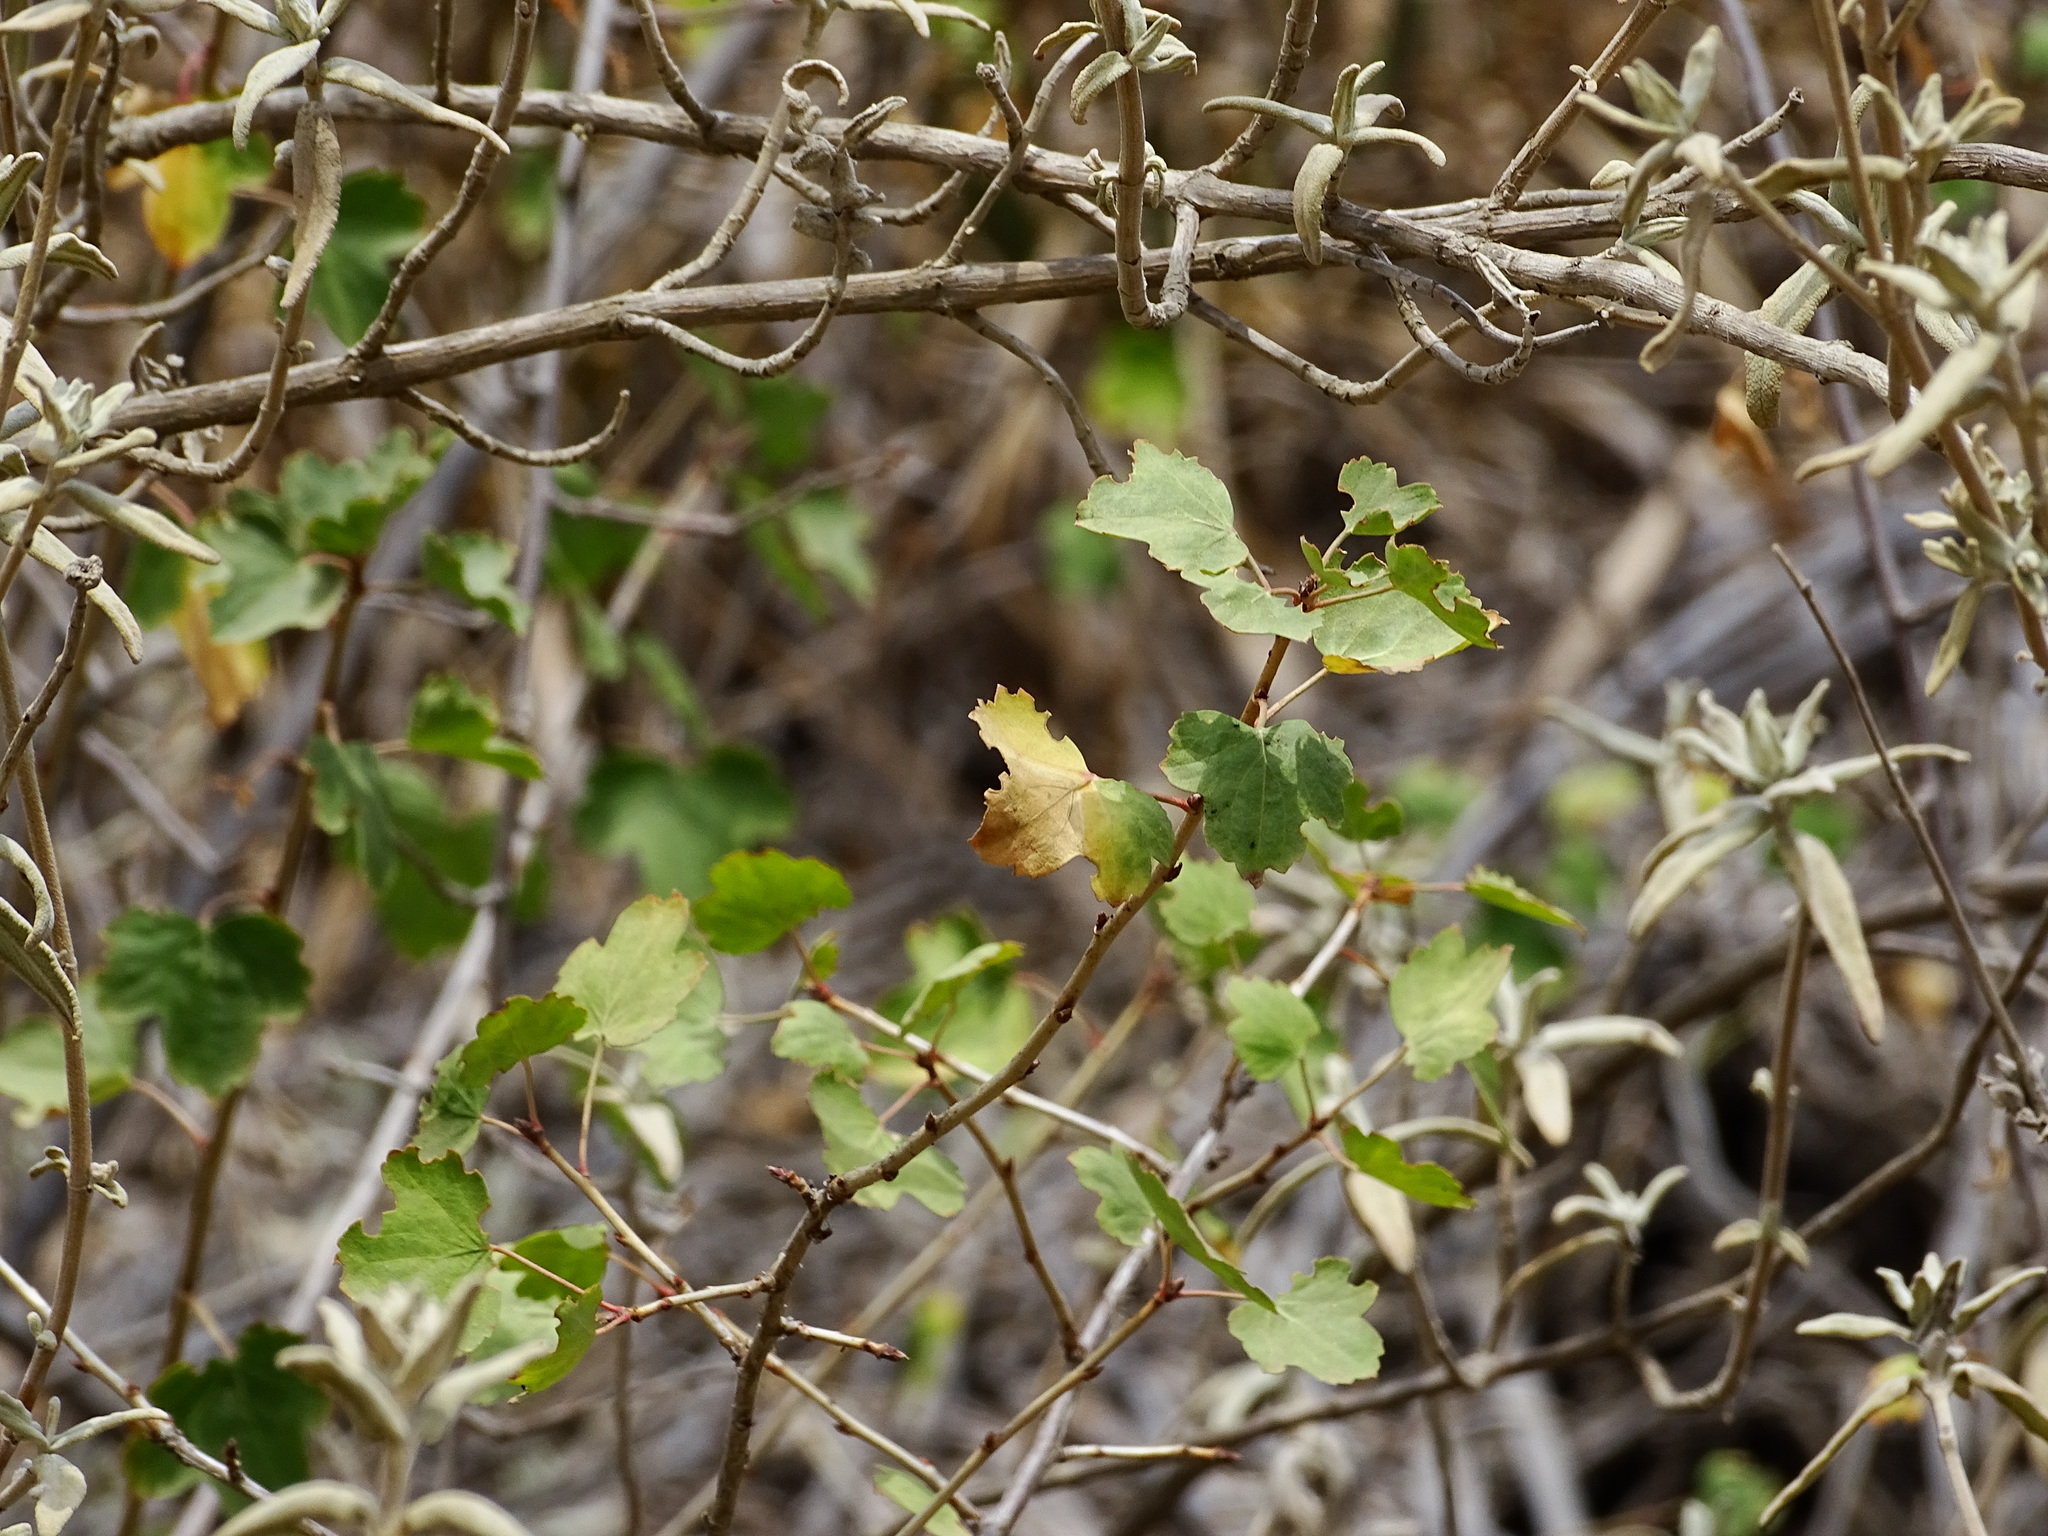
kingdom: Plantae
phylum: Tracheophyta
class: Magnoliopsida
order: Saxifragales
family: Grossulariaceae
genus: Ribes
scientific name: Ribes aureum
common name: Golden currant
